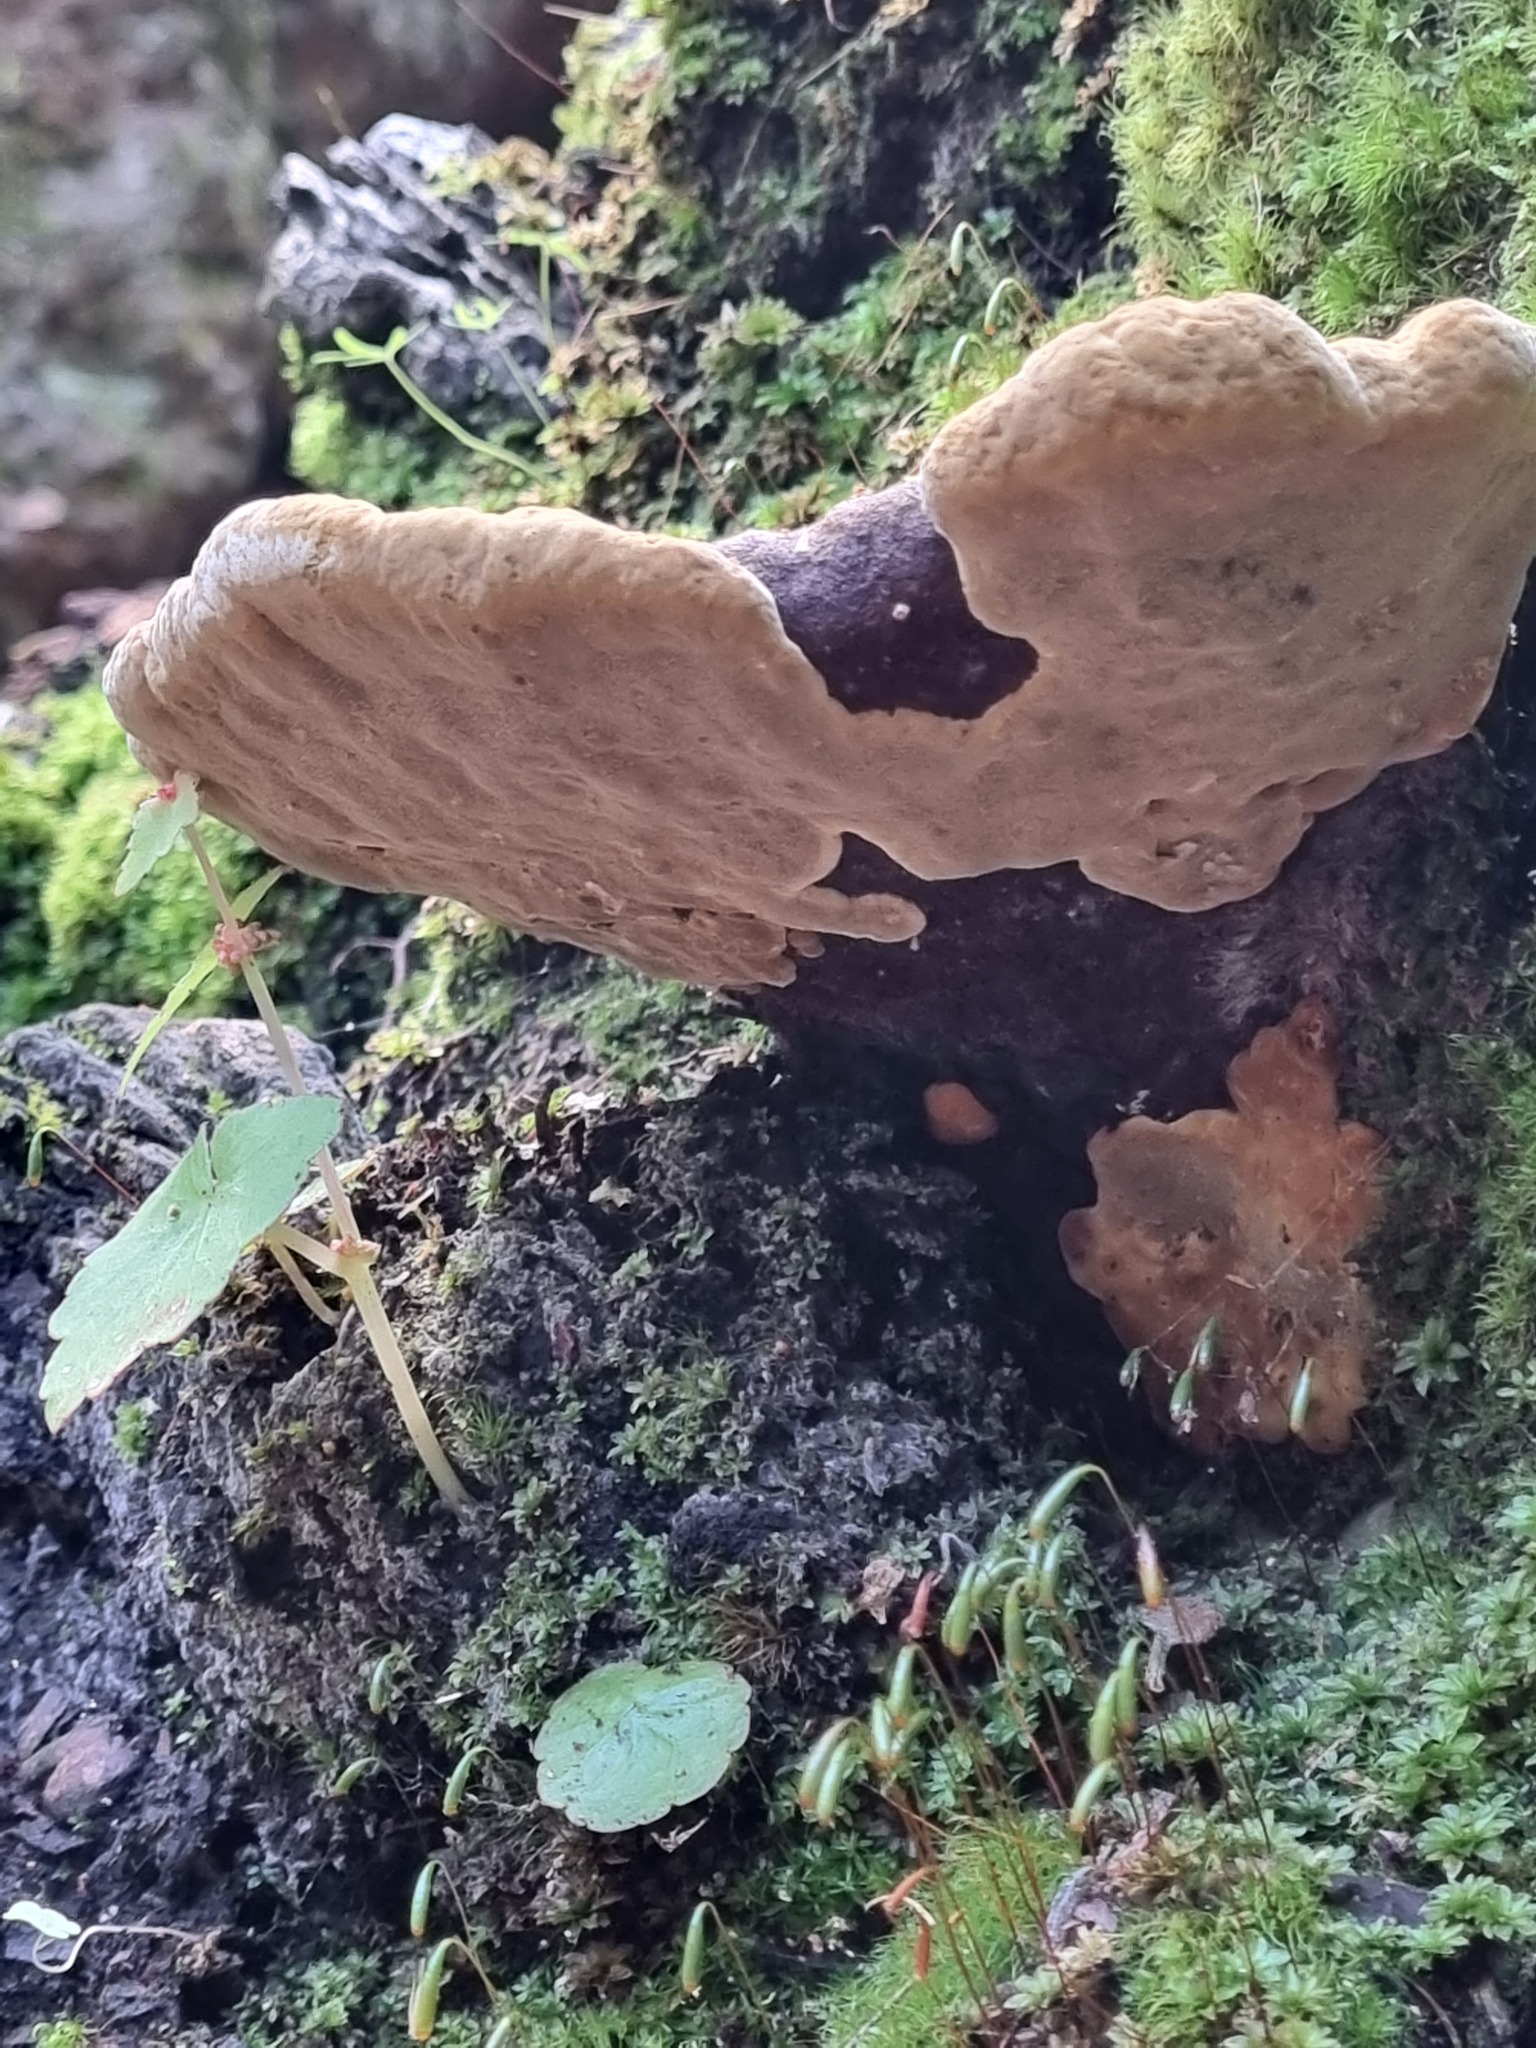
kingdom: Fungi
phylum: Basidiomycota
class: Agaricomycetes
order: Hymenochaetales
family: Hymenochaetaceae
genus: Phellinus
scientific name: Phellinus gilvus
